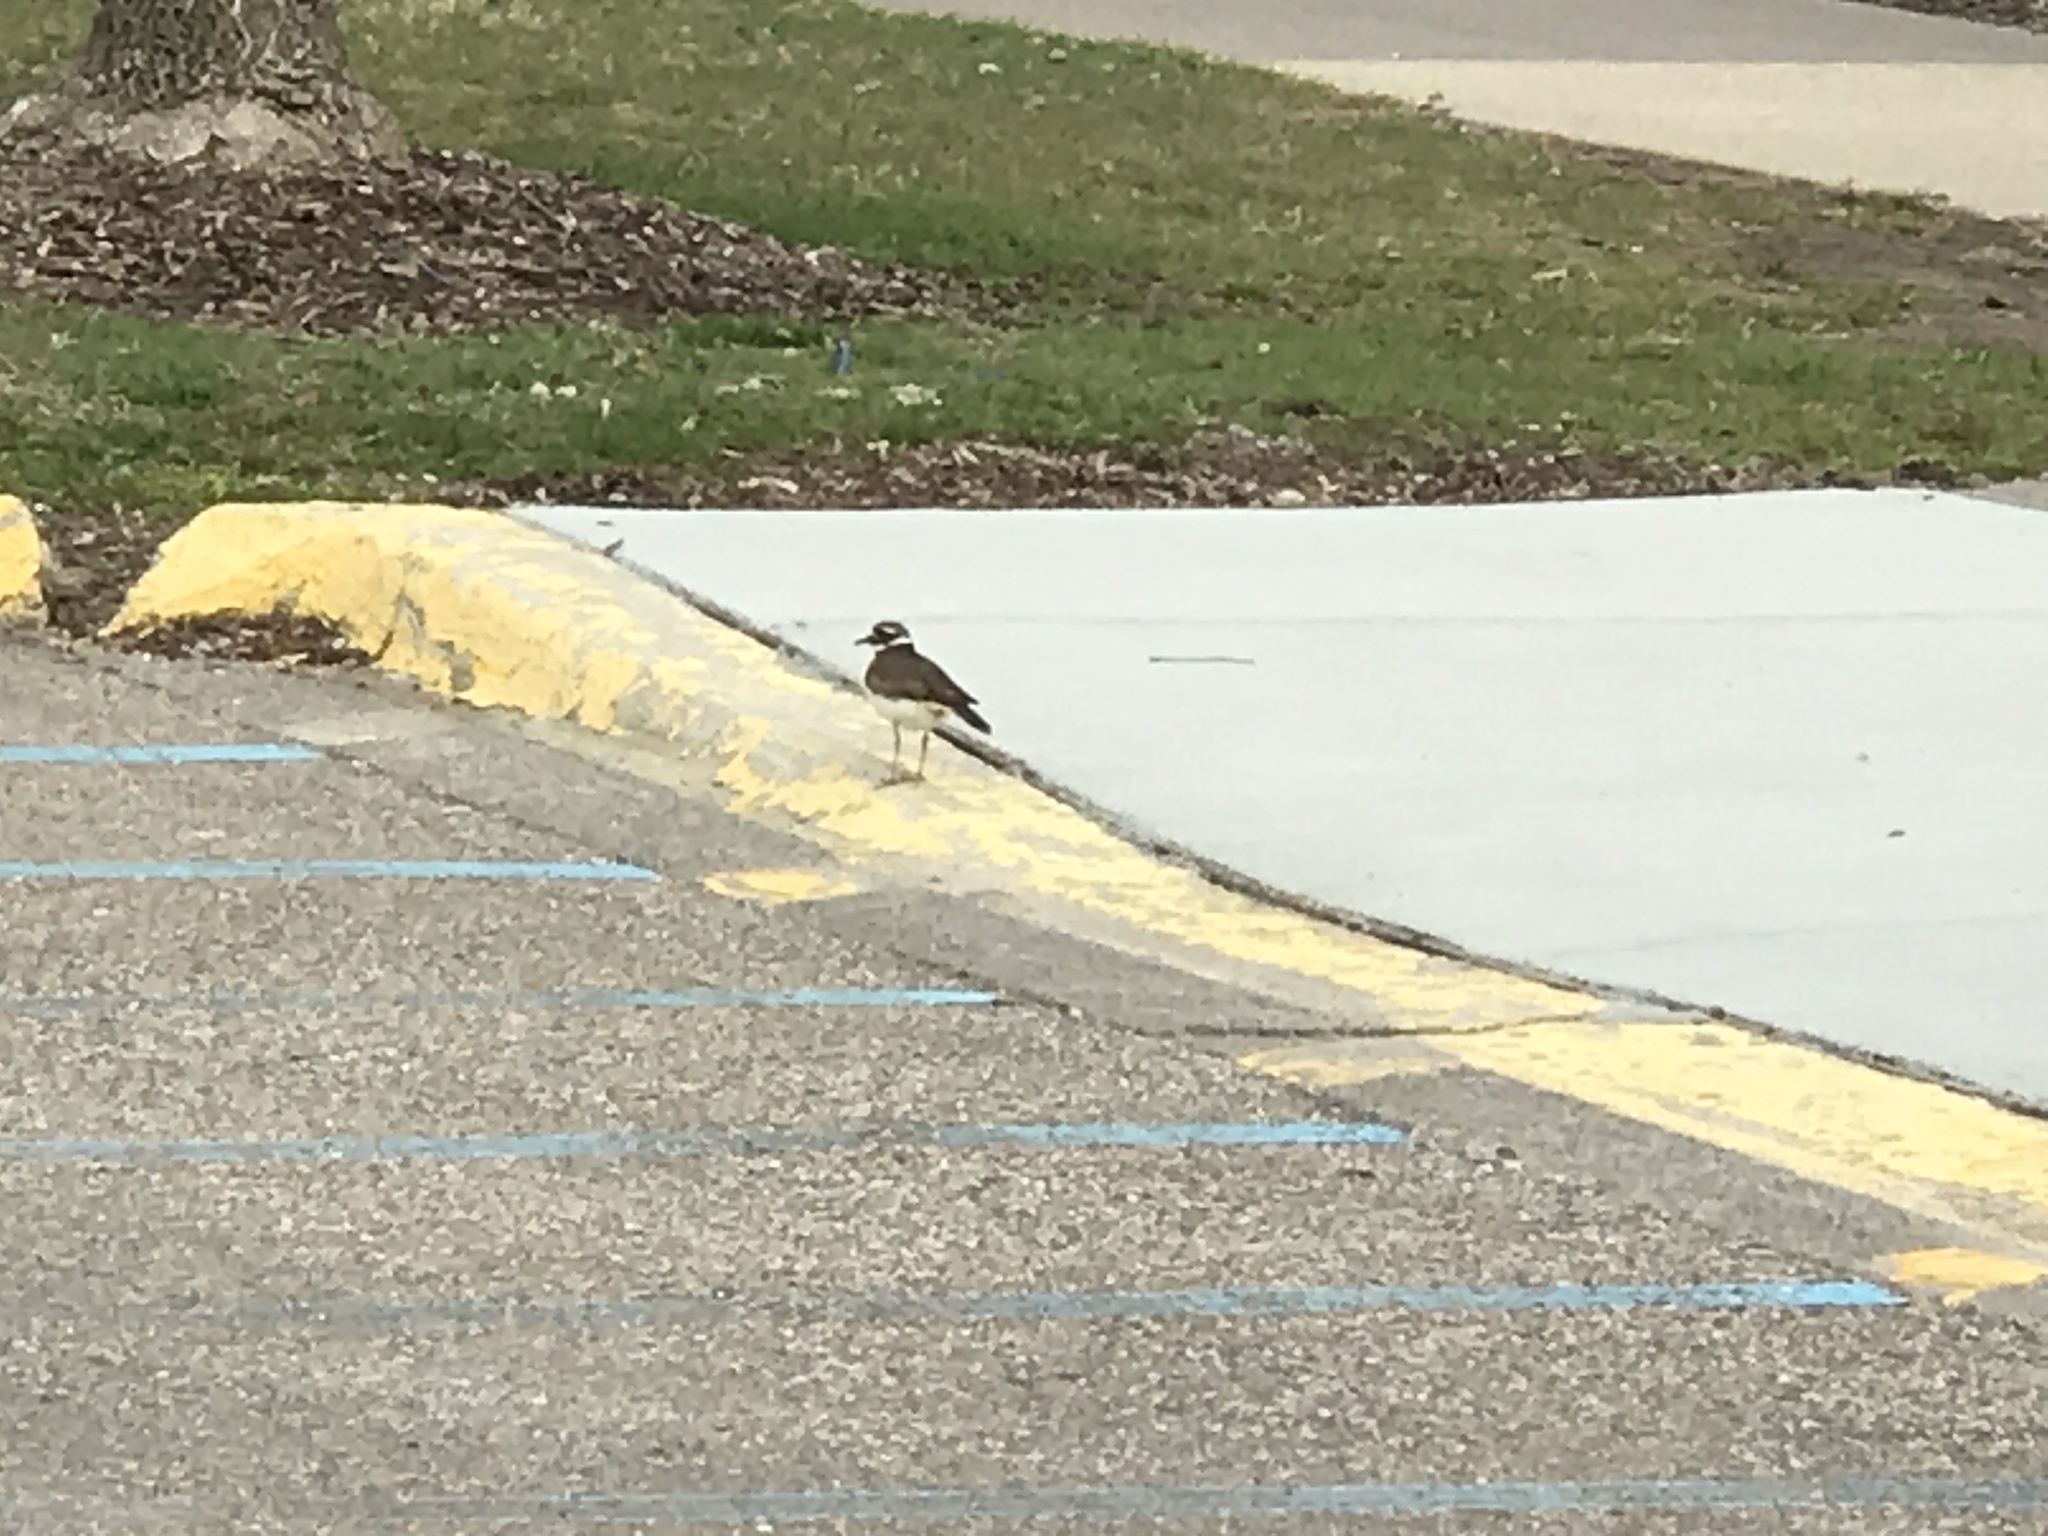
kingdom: Animalia
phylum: Chordata
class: Aves
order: Charadriiformes
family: Charadriidae
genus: Charadrius
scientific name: Charadrius vociferus
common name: Killdeer
